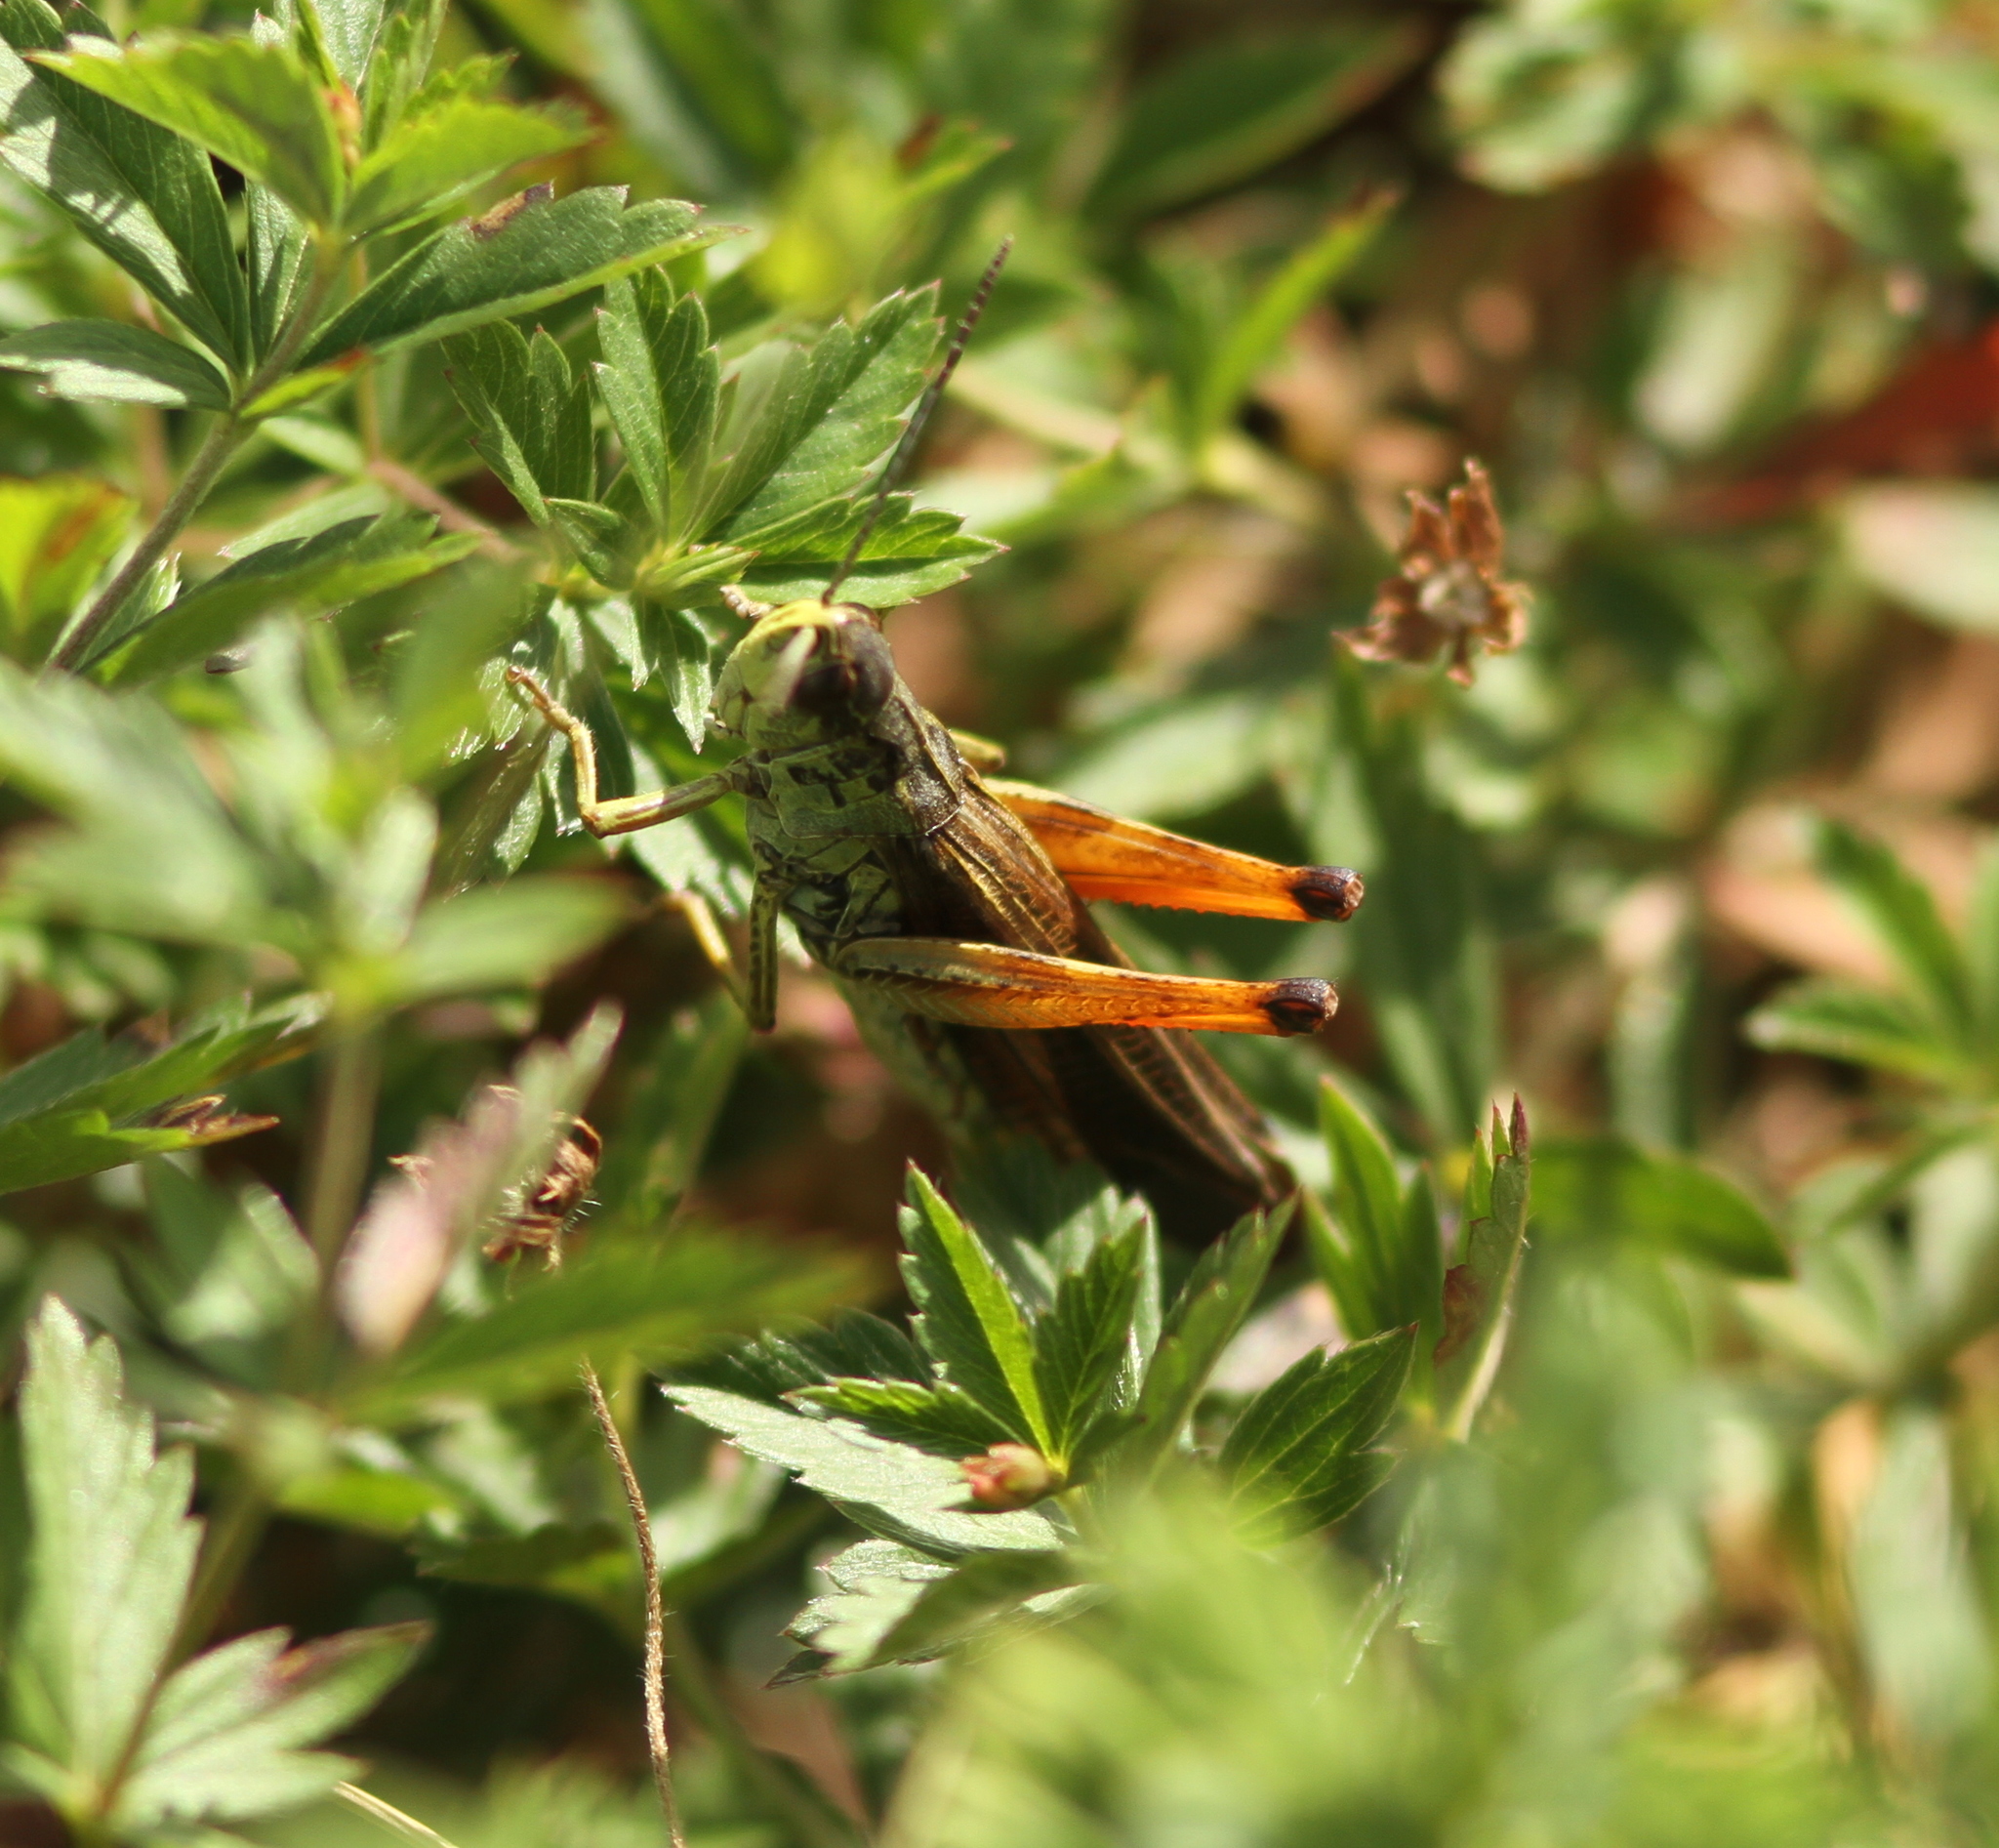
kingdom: Animalia
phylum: Arthropoda
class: Insecta
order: Orthoptera
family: Acrididae
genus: Stauroderus
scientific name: Stauroderus scalaris
